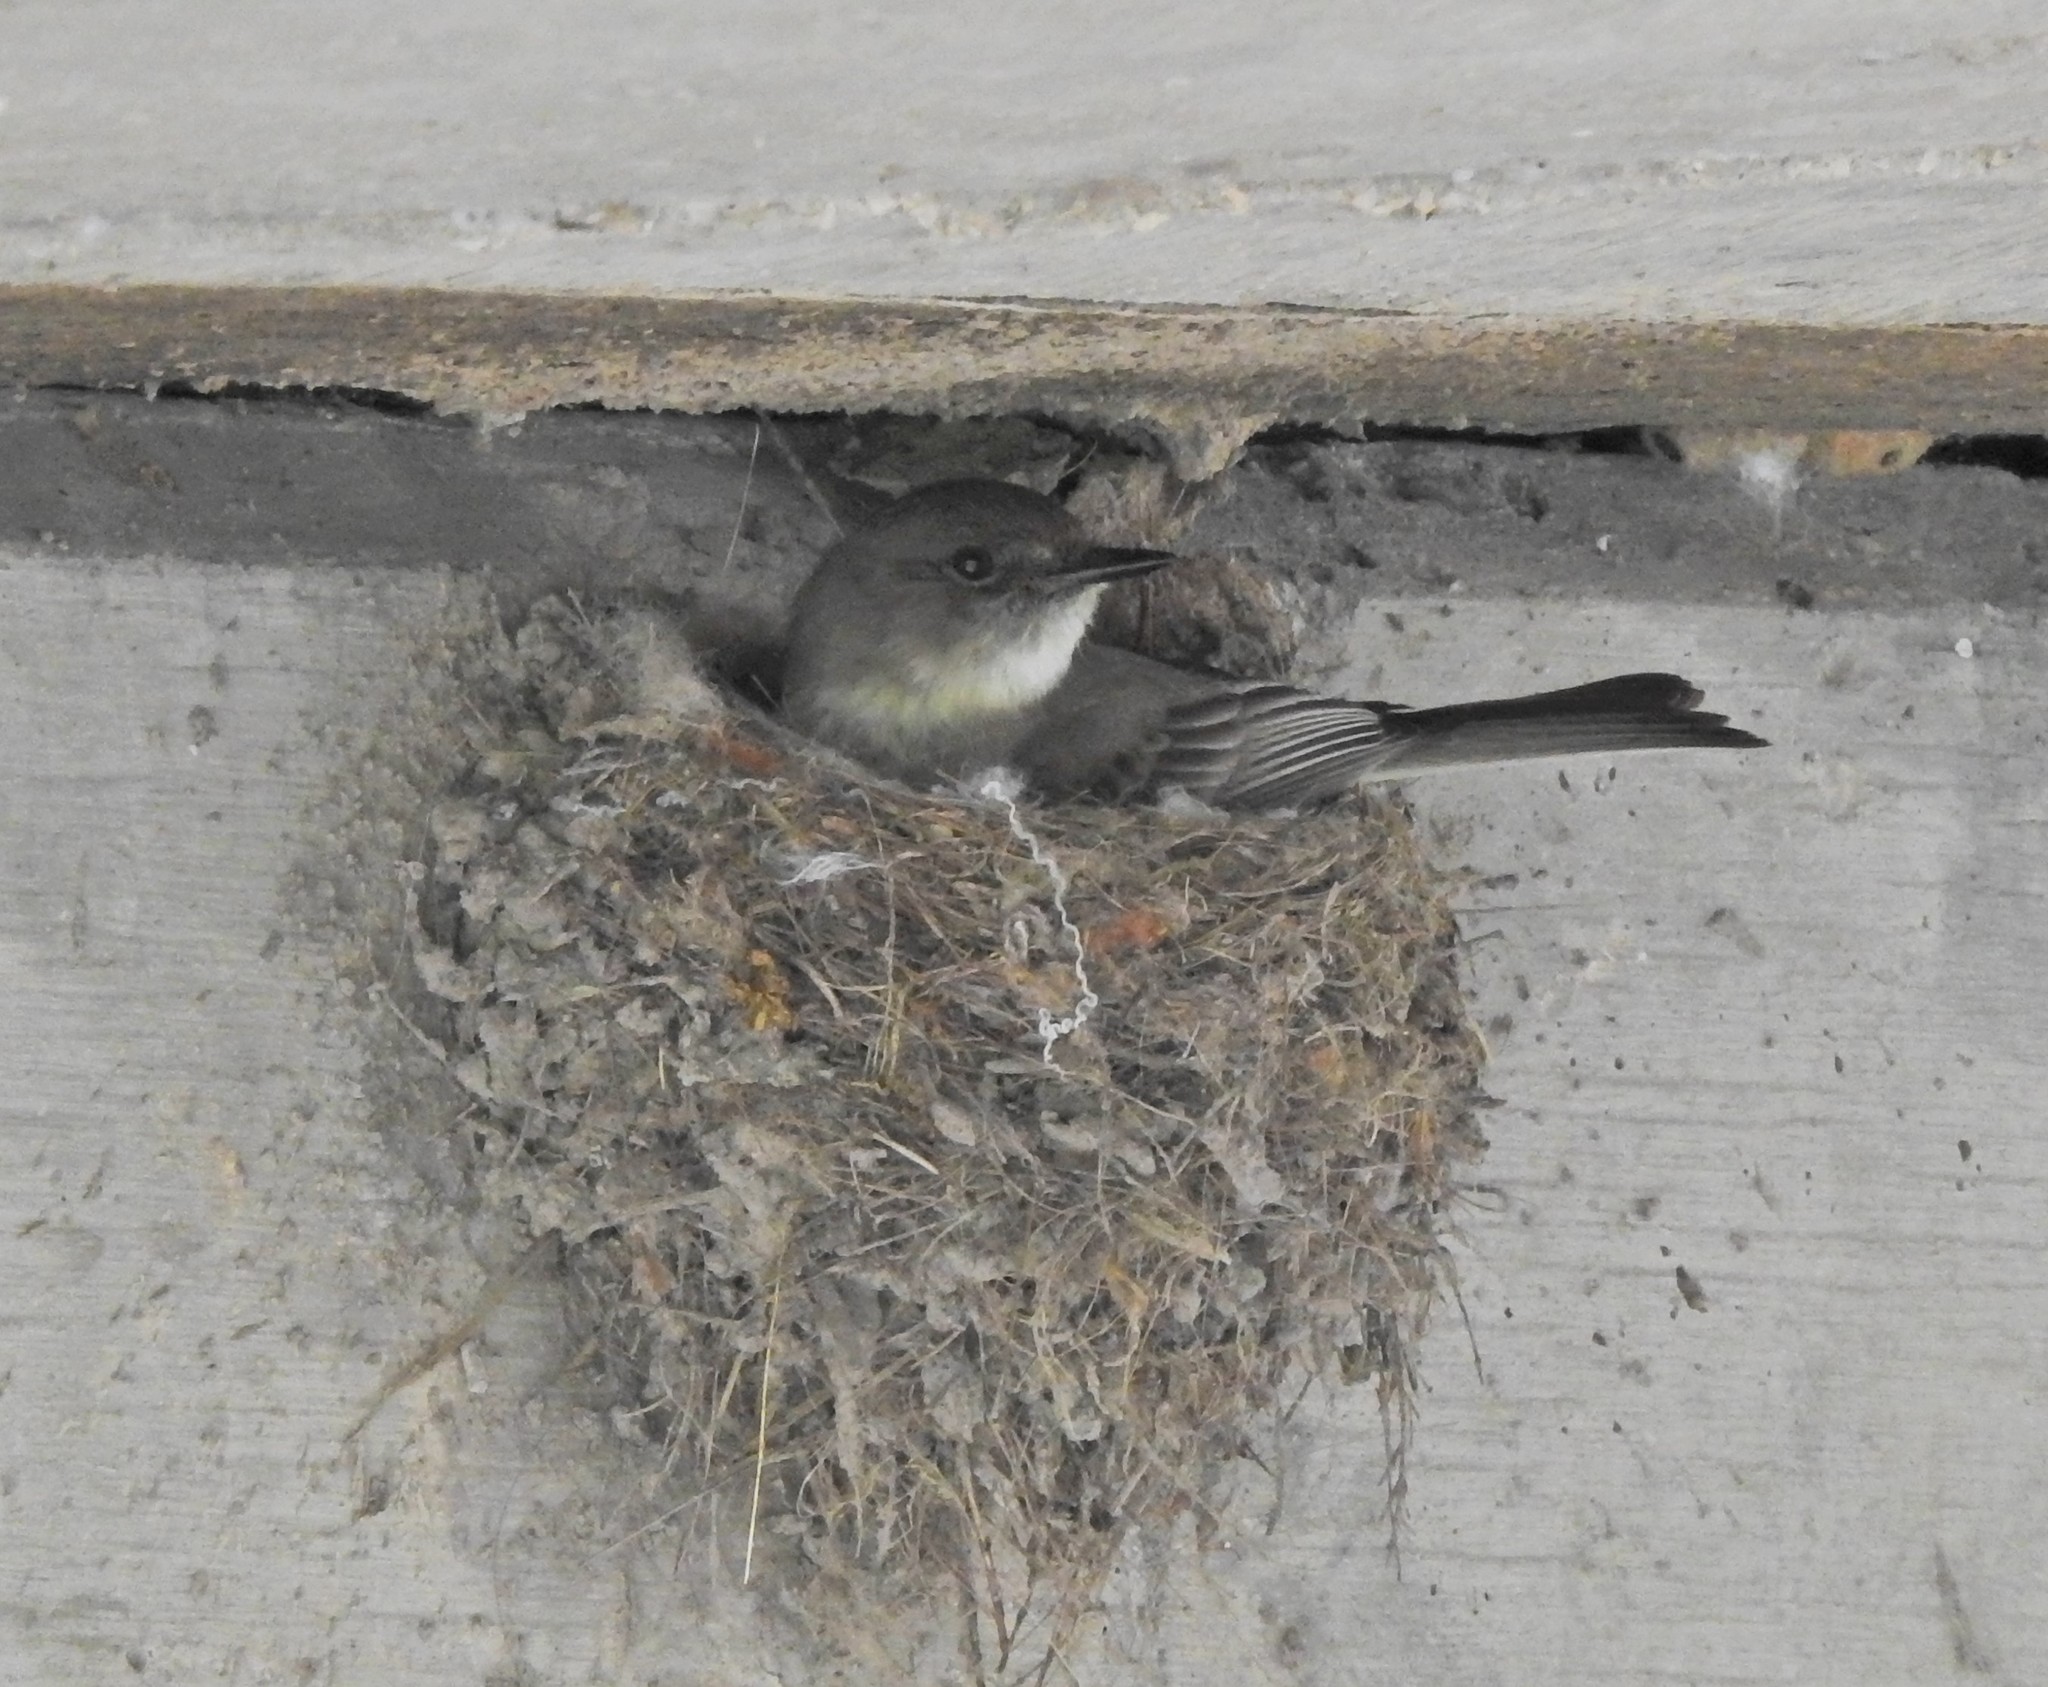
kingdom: Animalia
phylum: Chordata
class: Aves
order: Passeriformes
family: Tyrannidae
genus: Sayornis
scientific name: Sayornis phoebe
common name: Eastern phoebe
